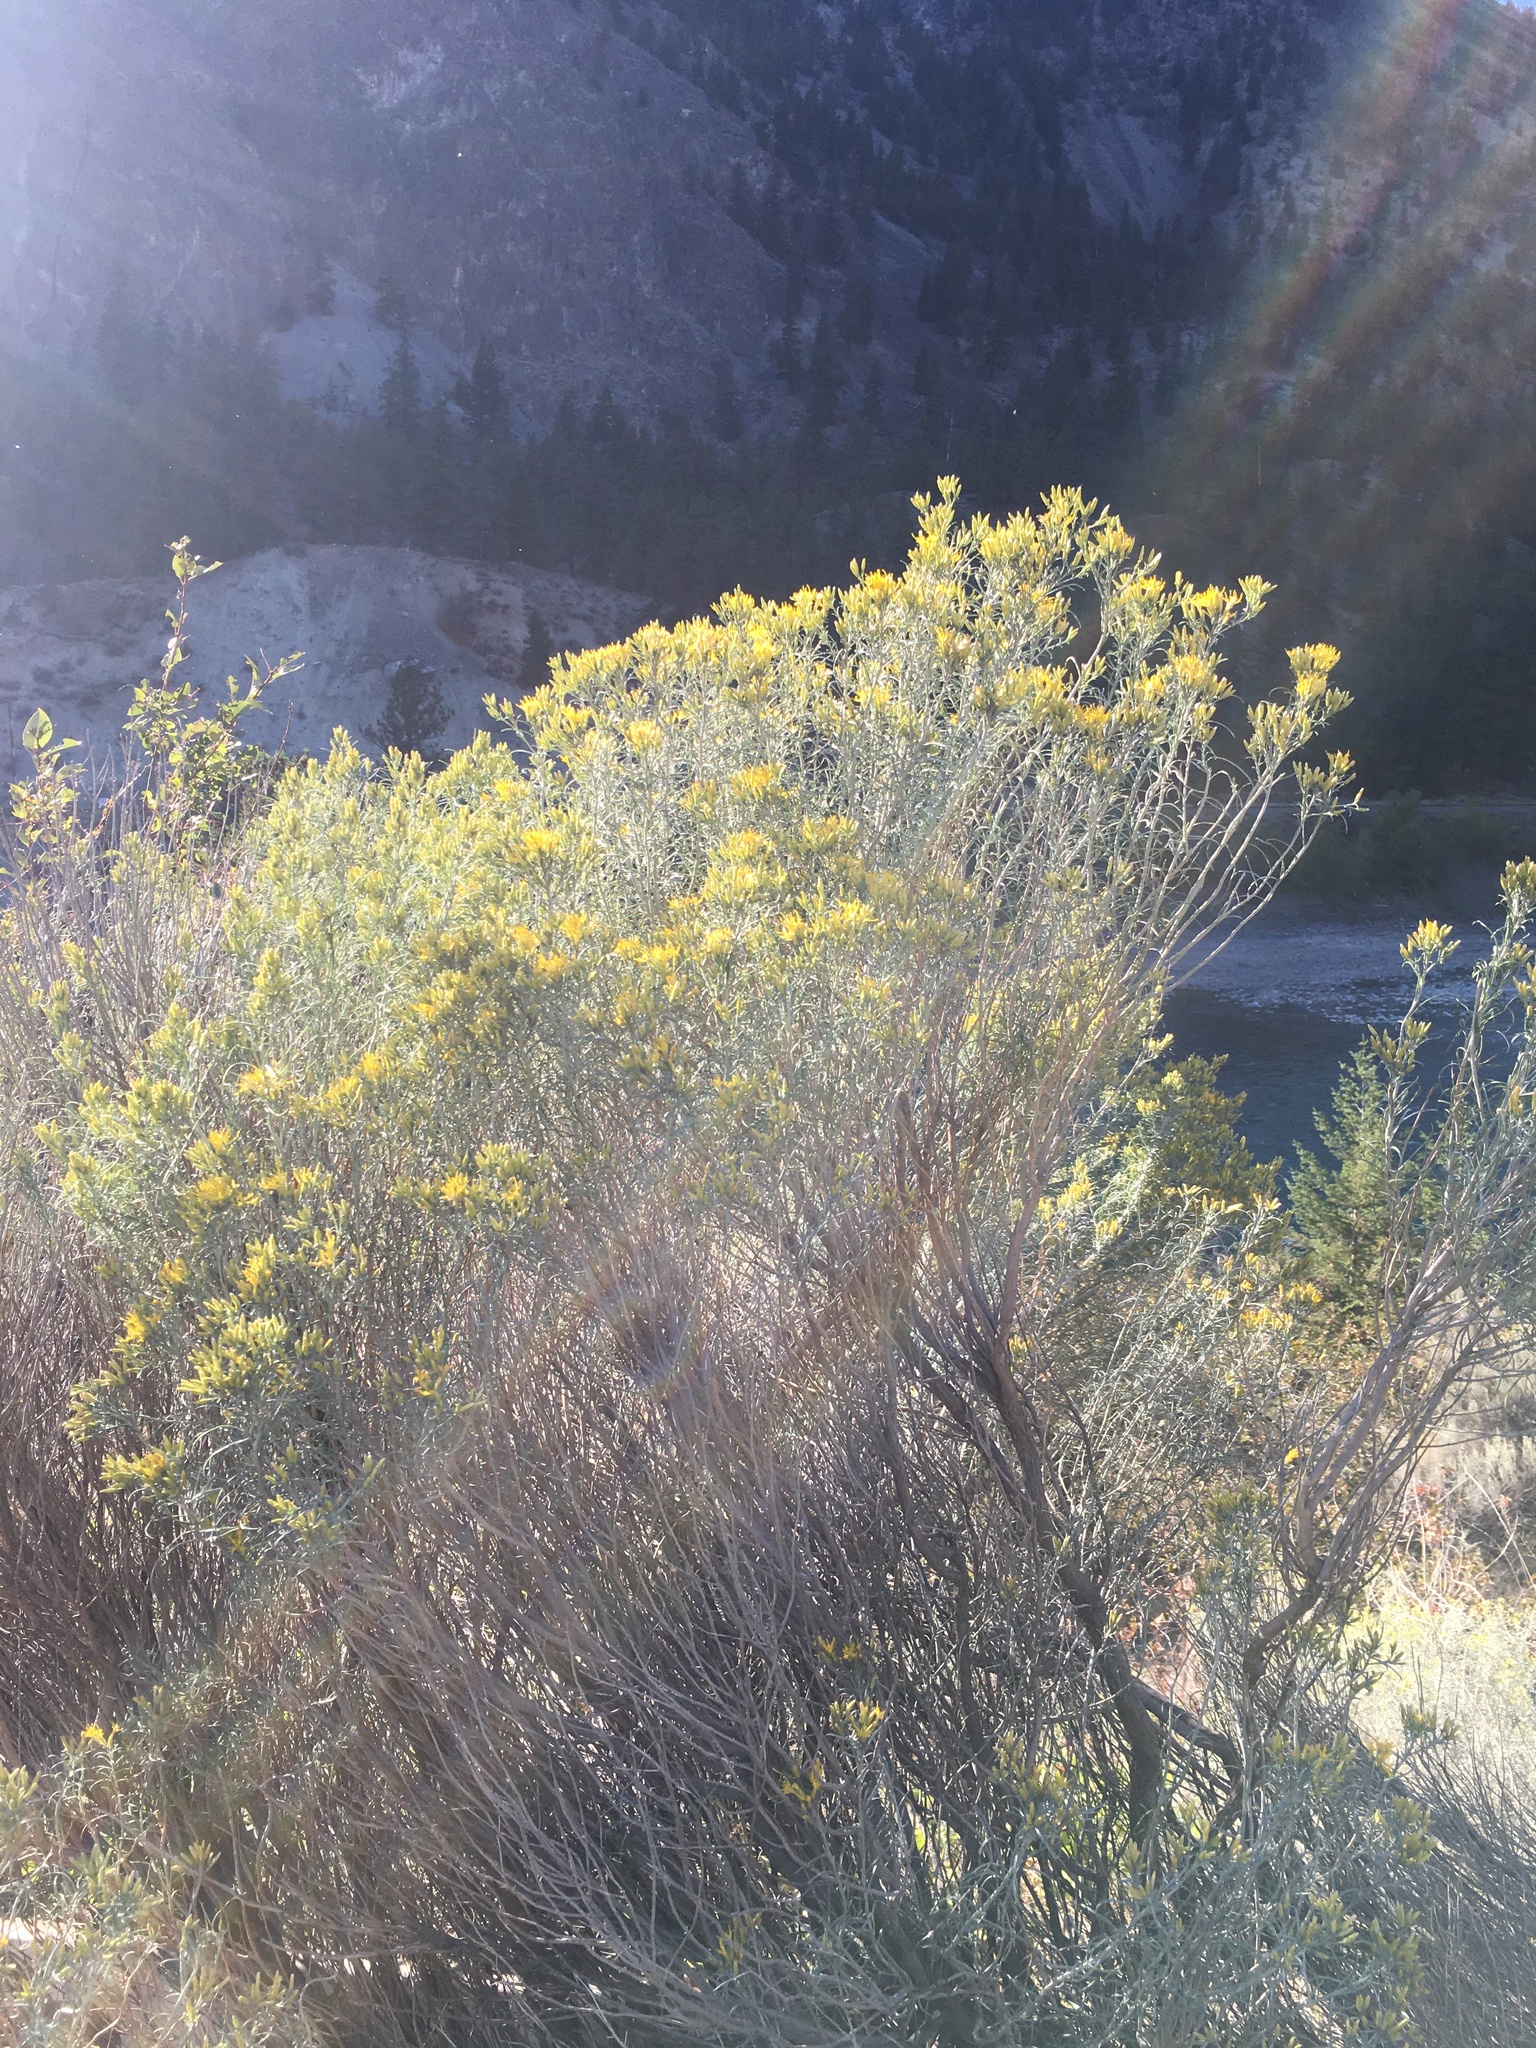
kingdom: Plantae
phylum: Tracheophyta
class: Magnoliopsida
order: Asterales
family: Asteraceae
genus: Ericameria
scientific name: Ericameria nauseosa
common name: Rubber rabbitbrush
